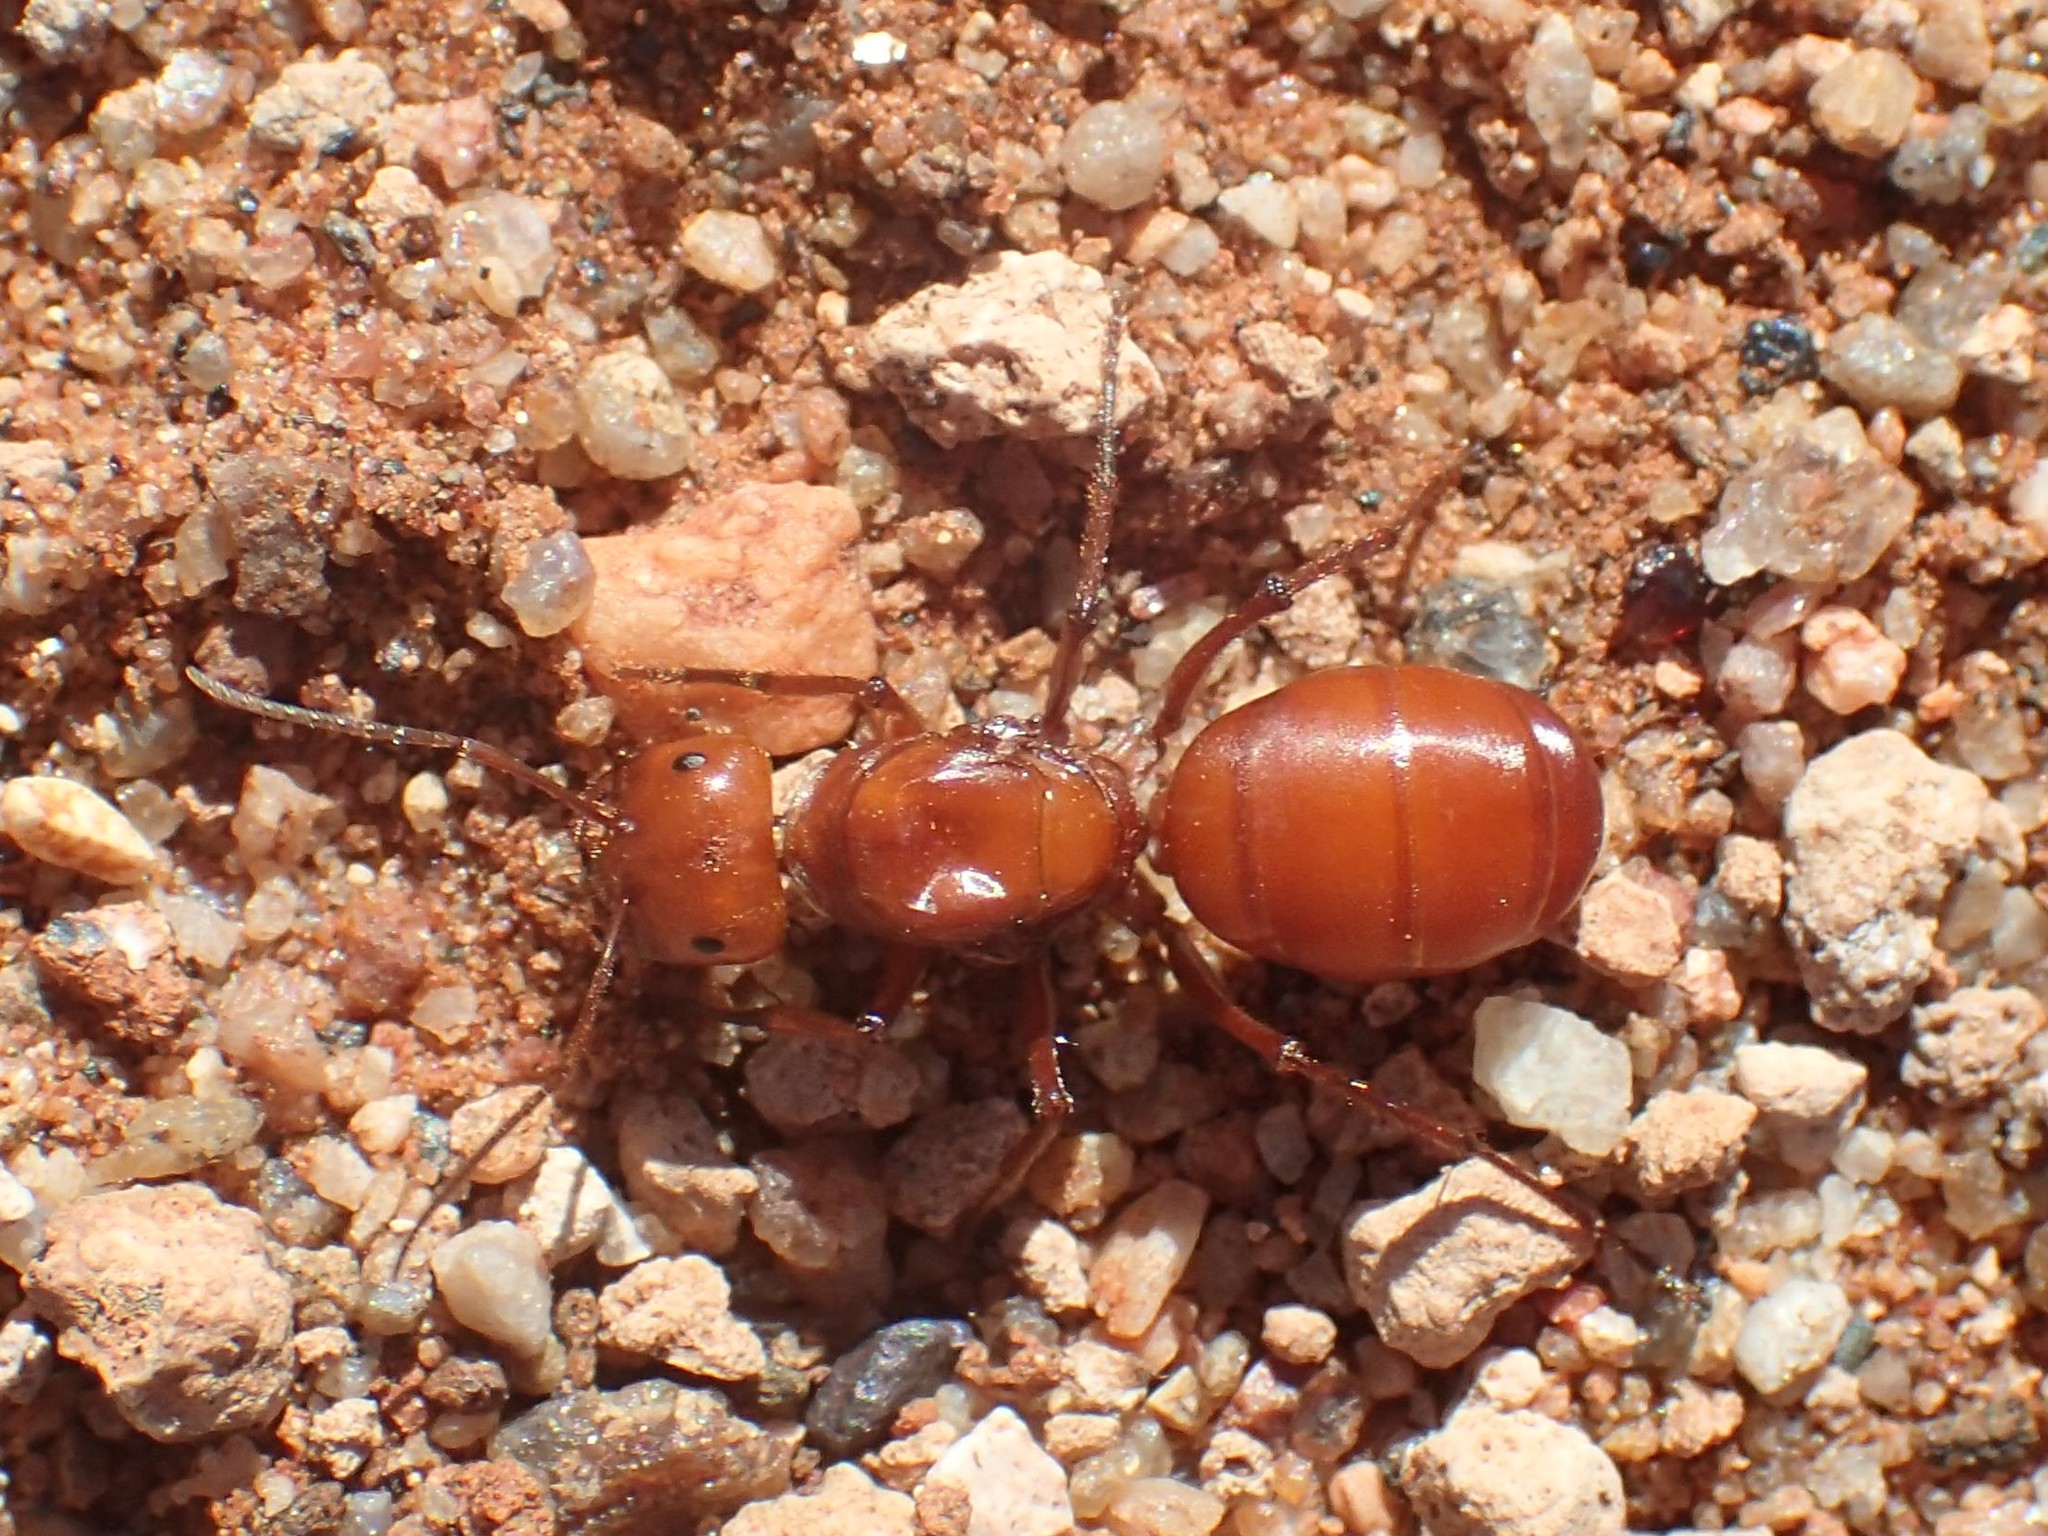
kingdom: Animalia
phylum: Arthropoda
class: Insecta
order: Hymenoptera
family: Formicidae
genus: Melophorus
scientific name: Melophorus bagoti
